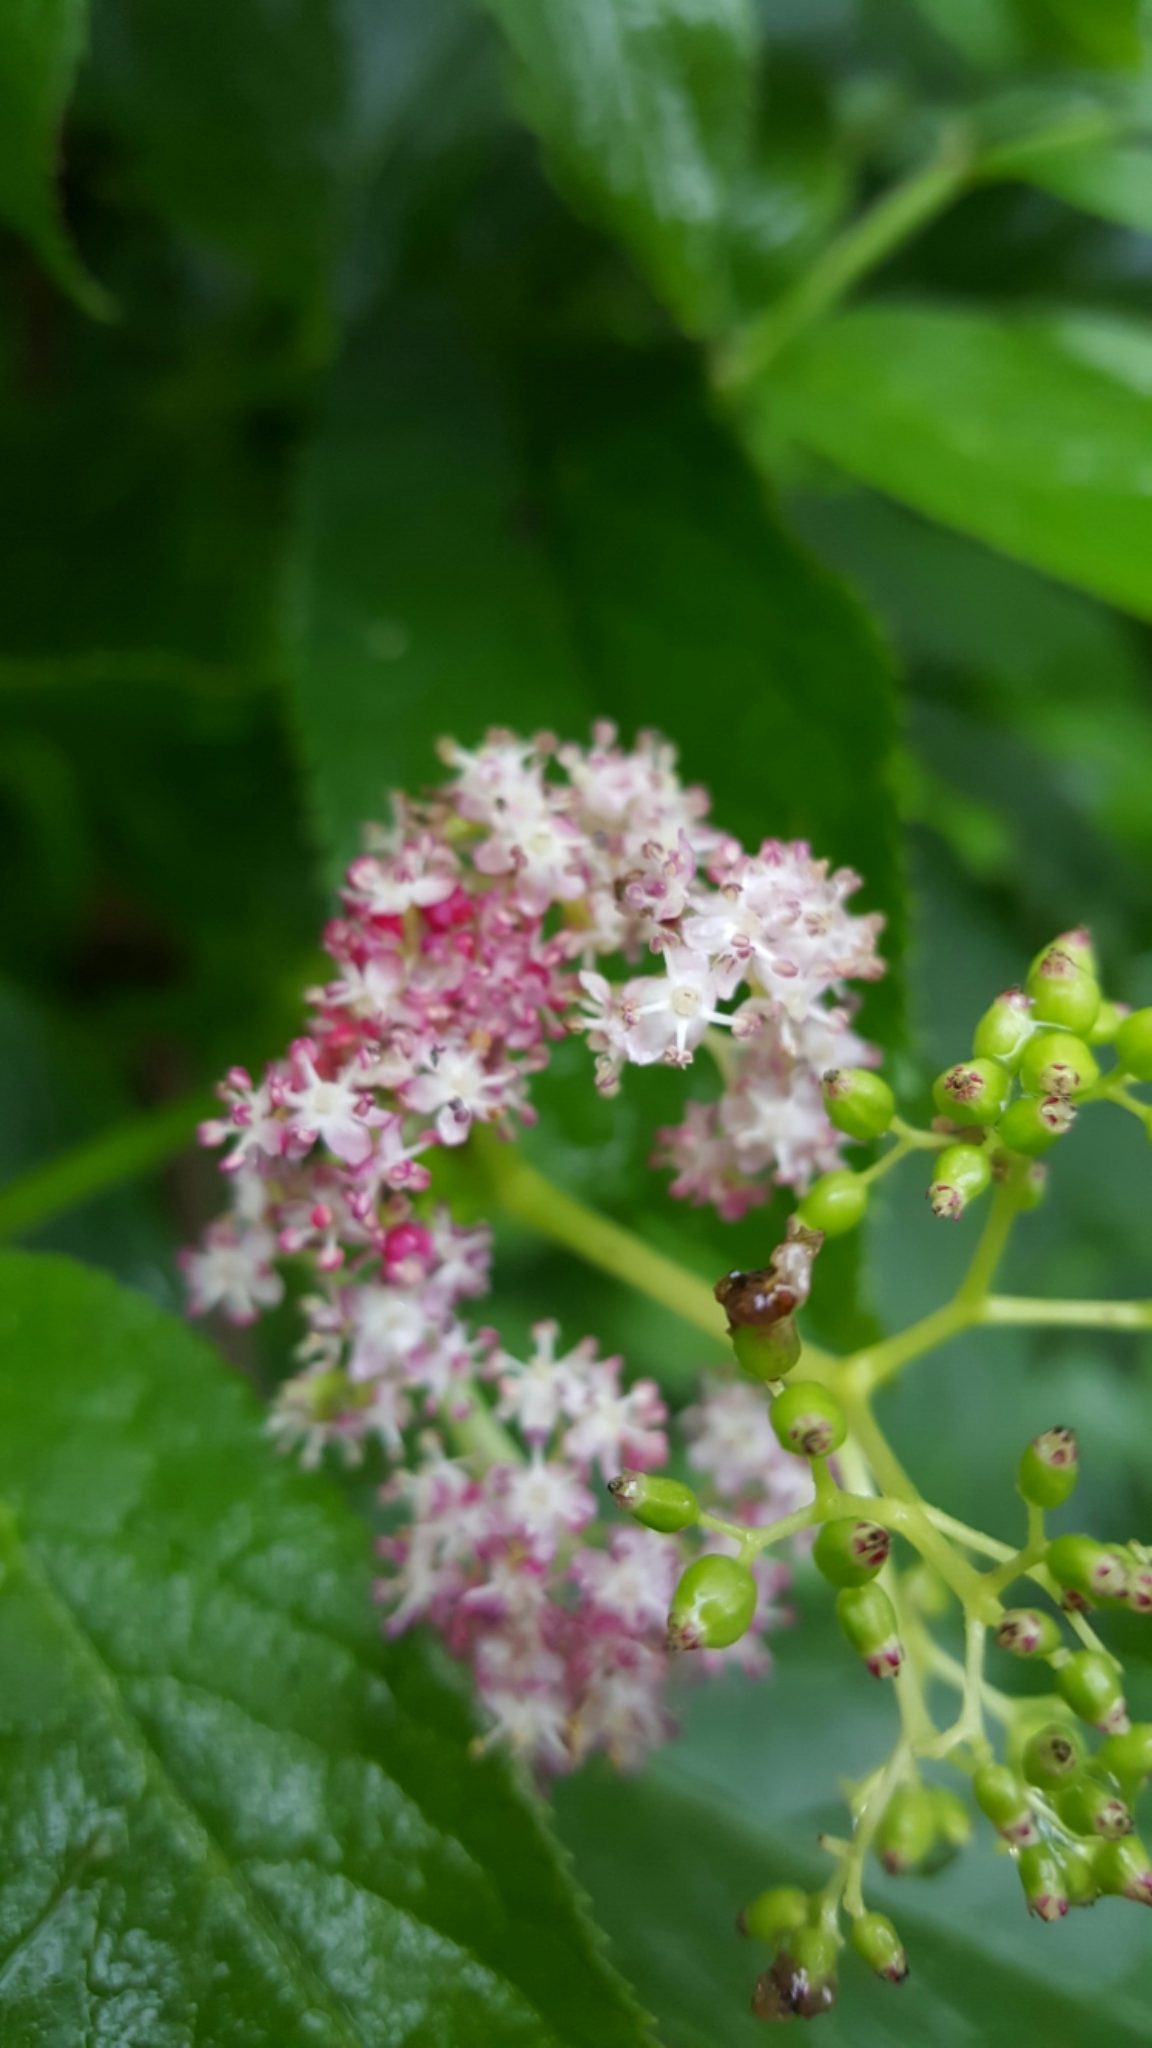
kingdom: Plantae
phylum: Tracheophyta
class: Magnoliopsida
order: Dipsacales
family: Viburnaceae
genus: Sambucus
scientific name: Sambucus racemosa
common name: Red-berried elder
